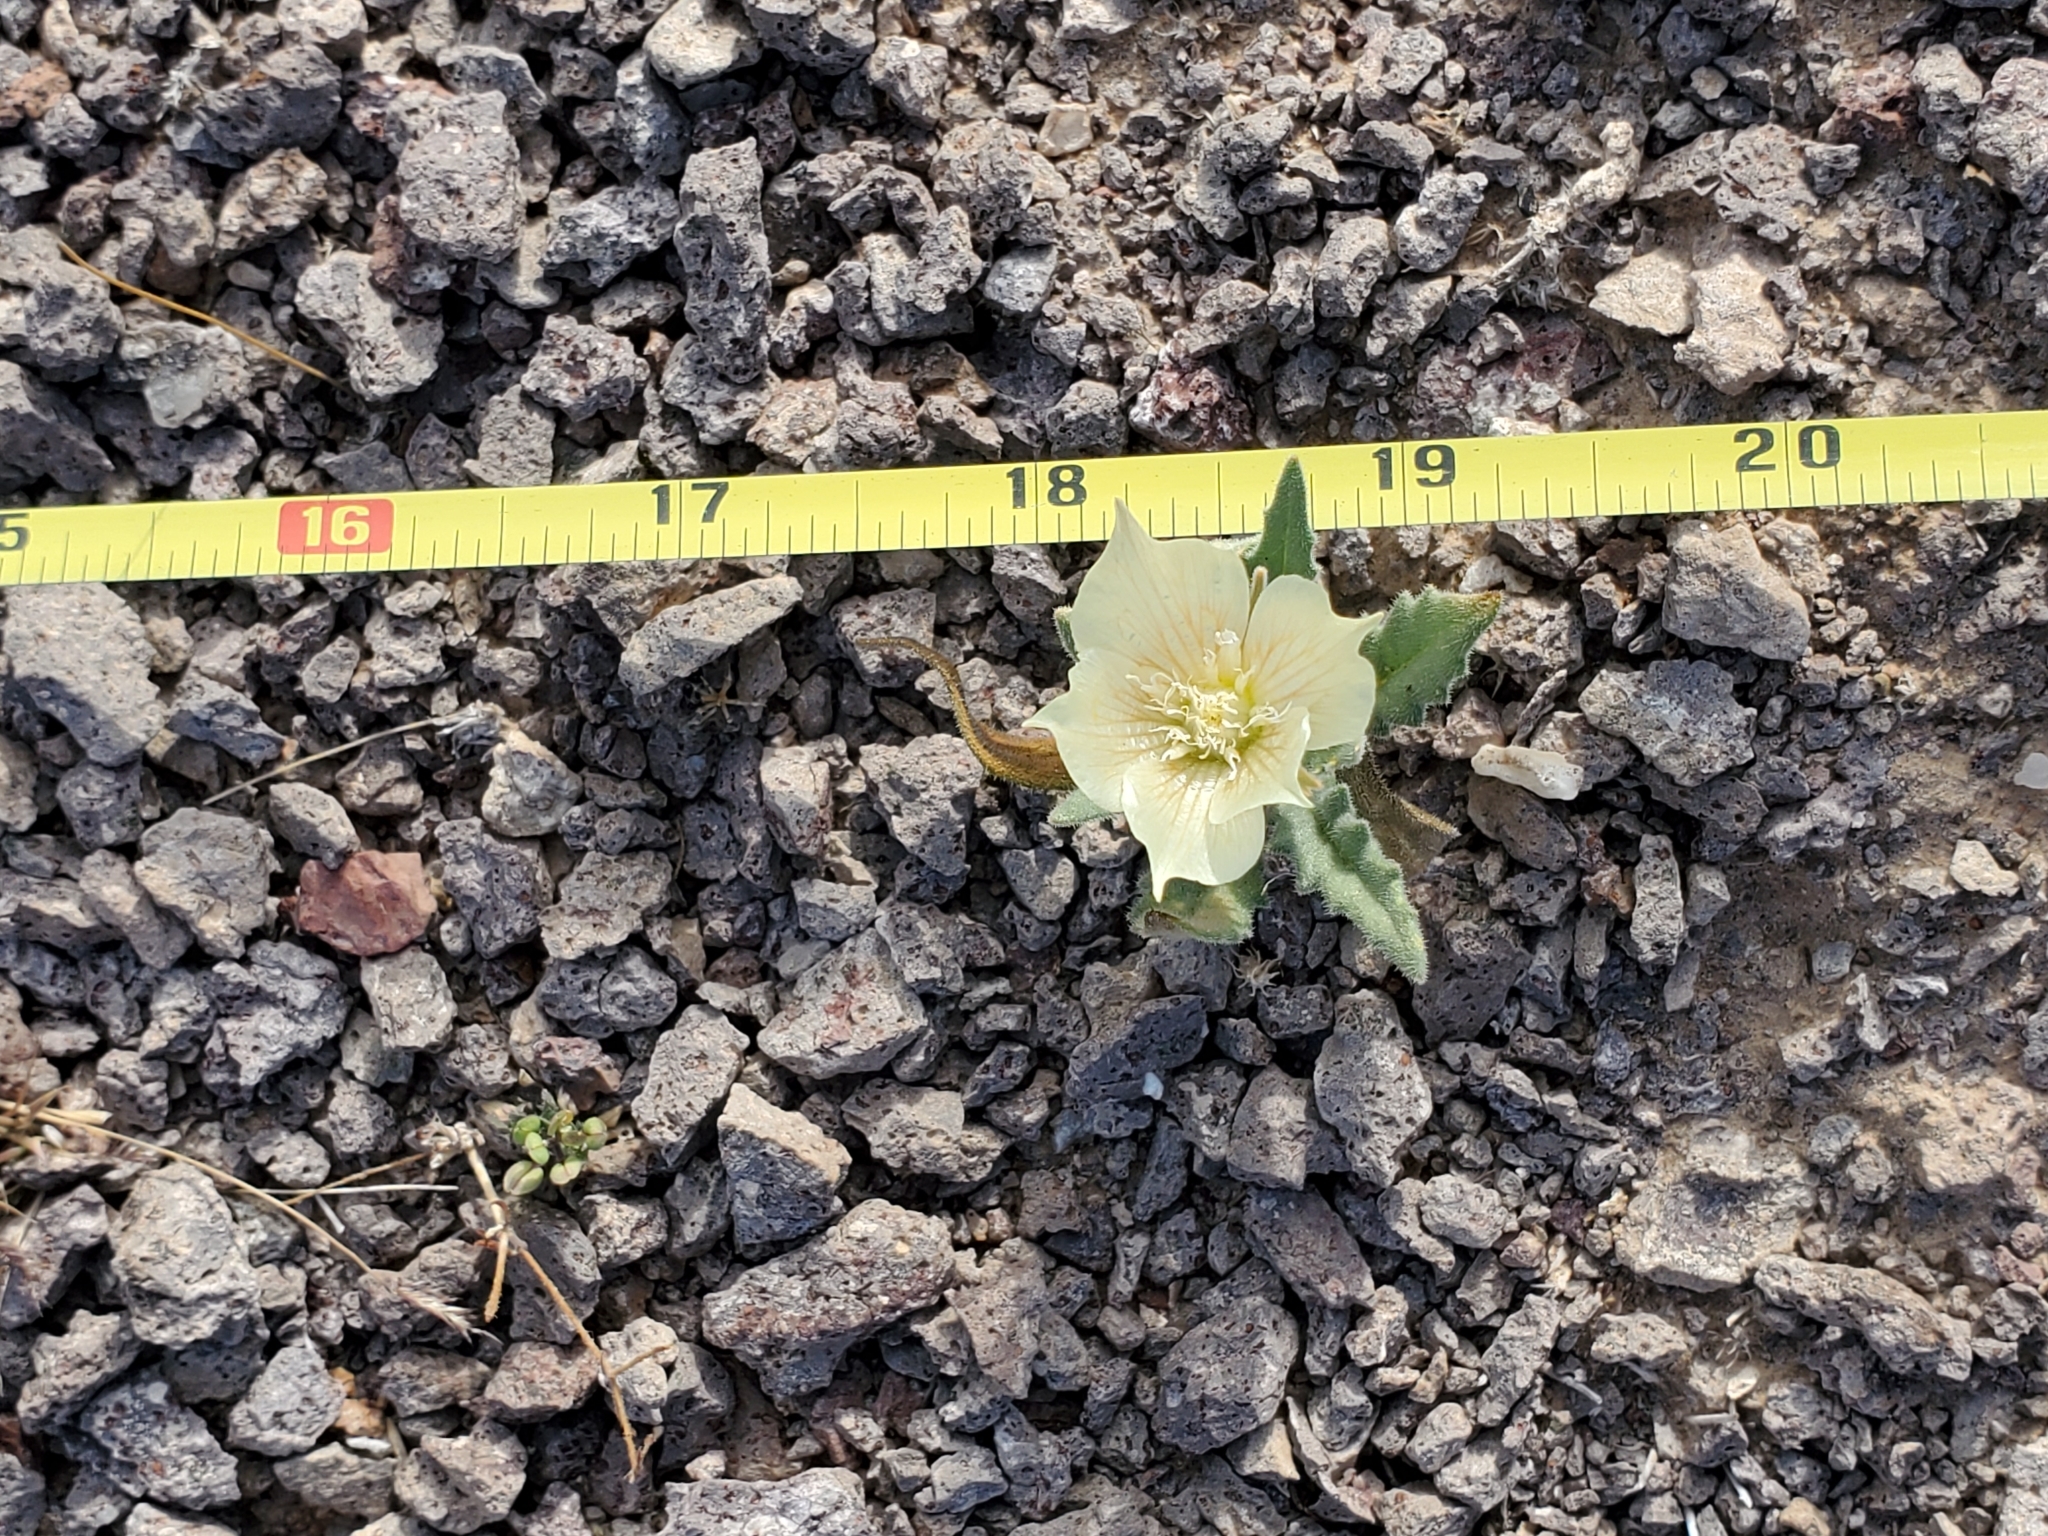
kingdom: Plantae
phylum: Tracheophyta
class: Magnoliopsida
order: Cornales
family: Loasaceae
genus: Mentzelia
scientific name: Mentzelia involucrata
